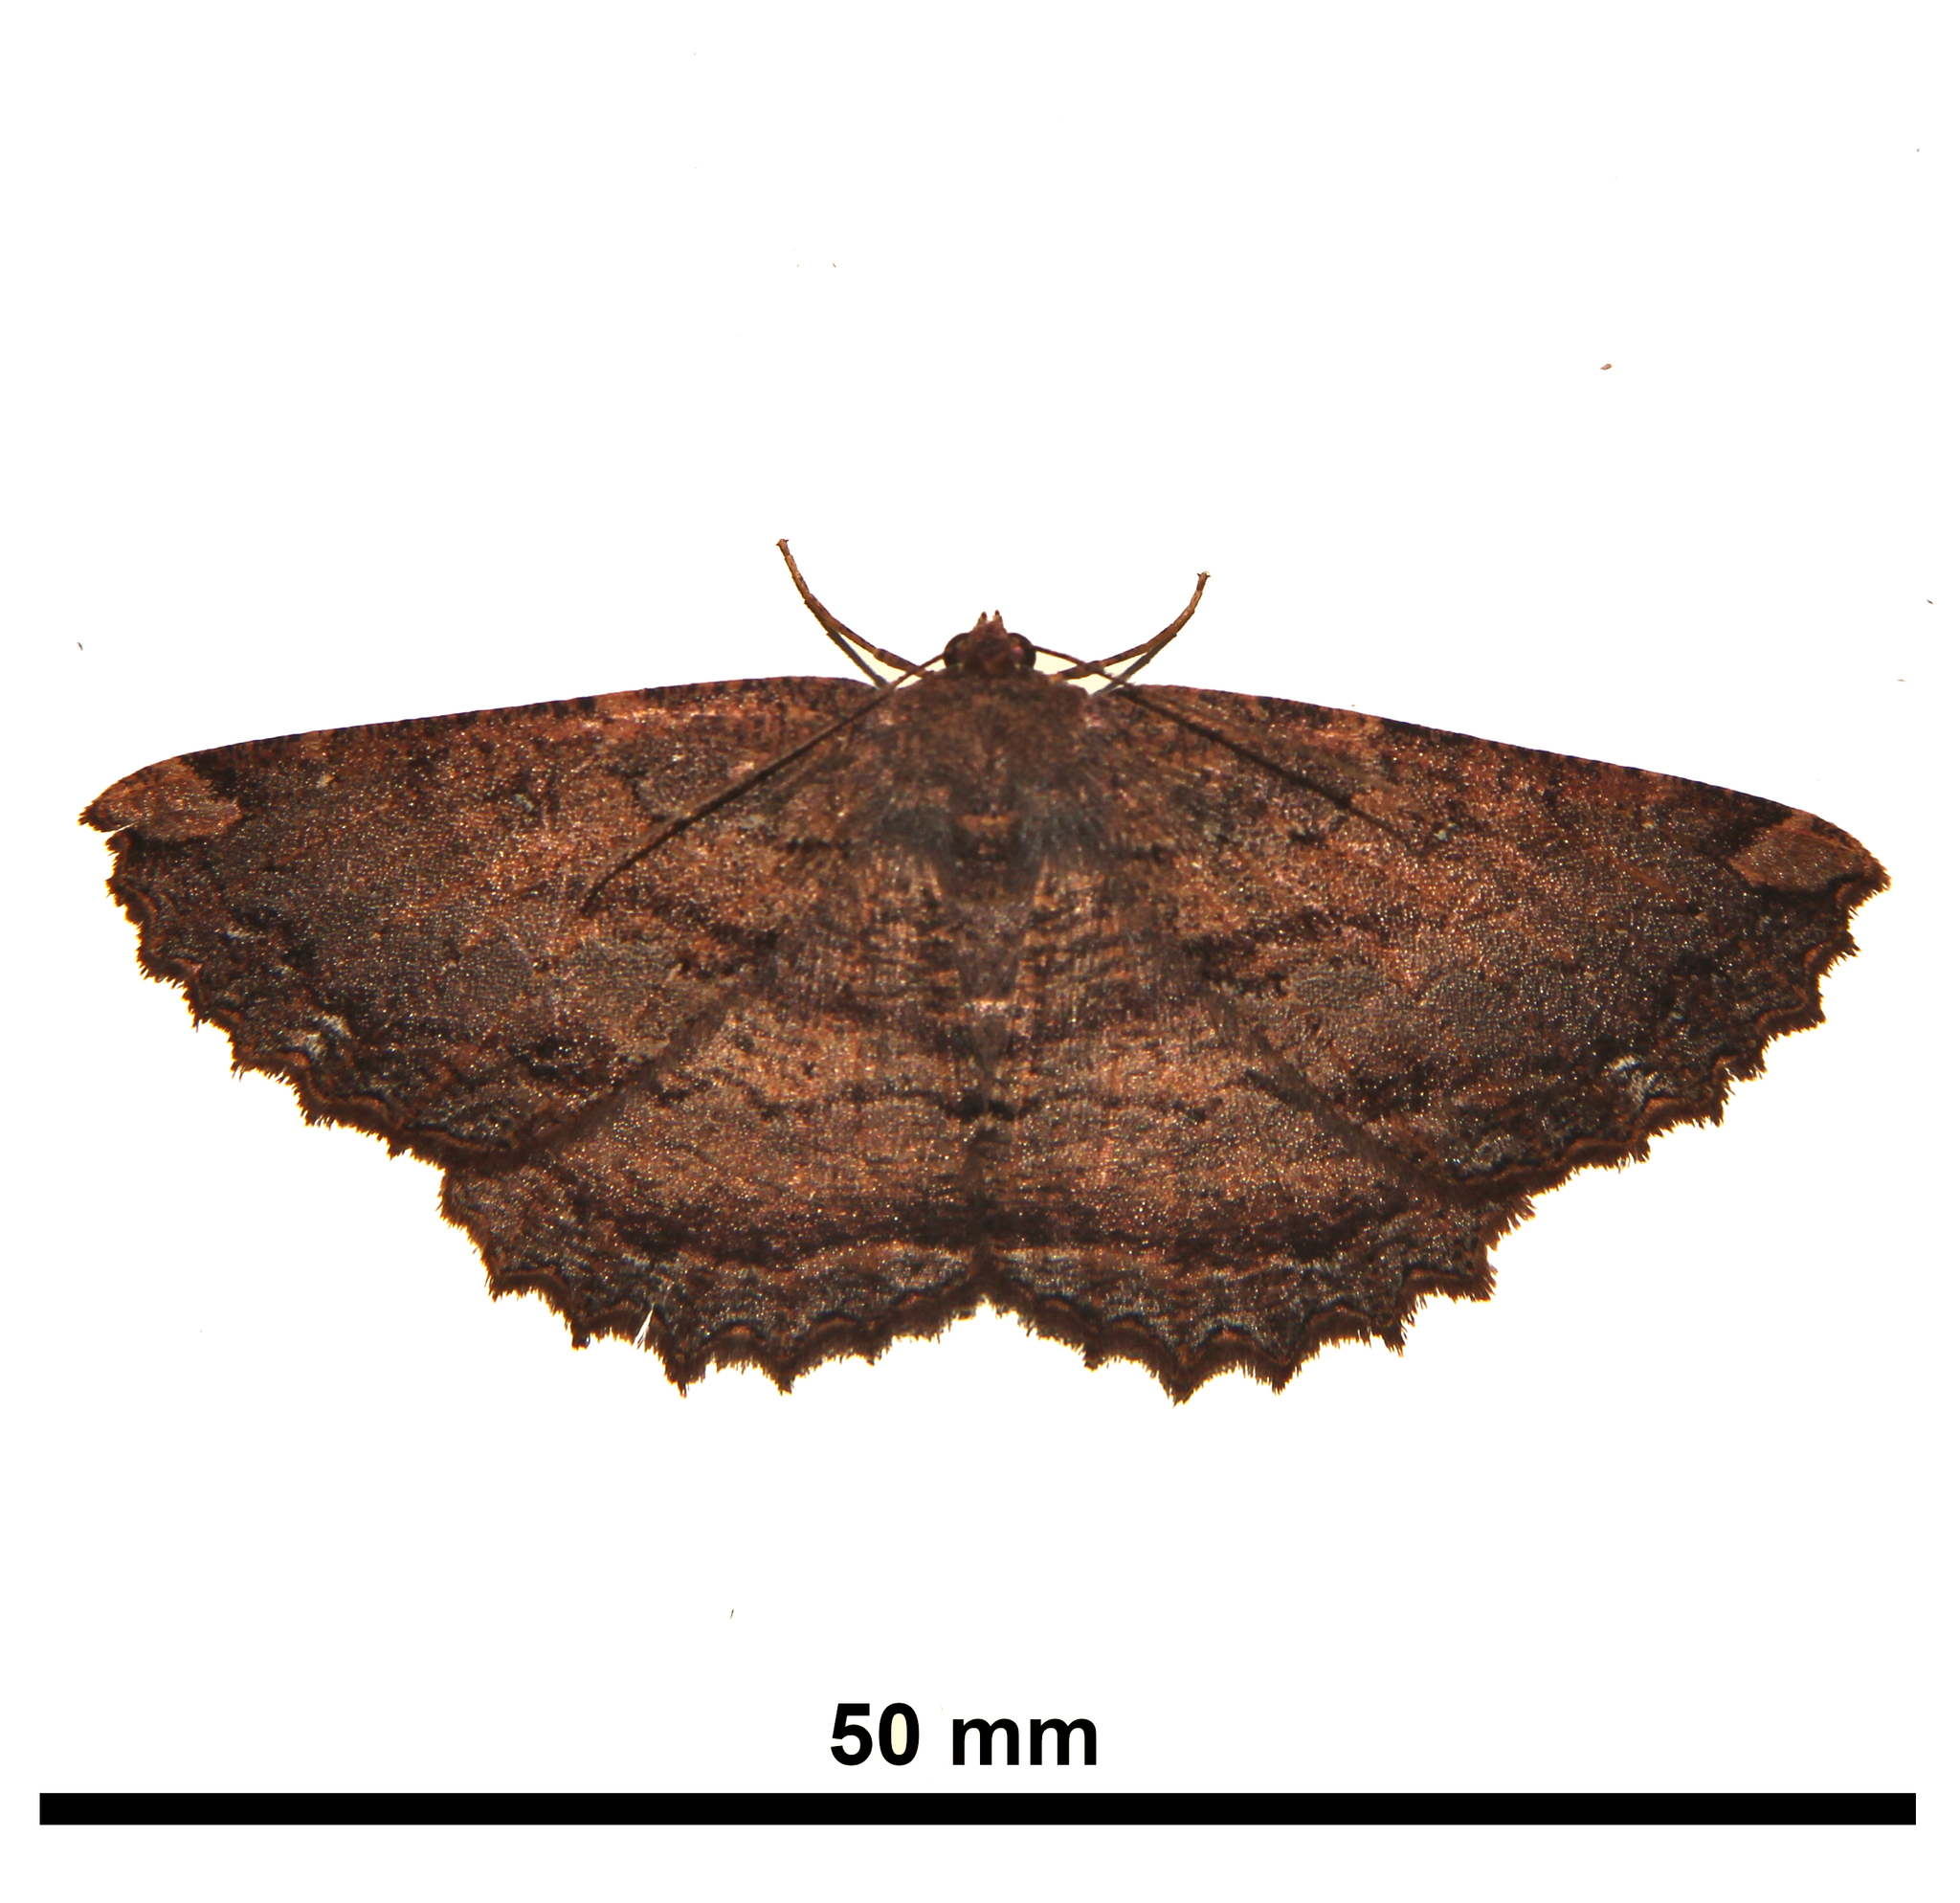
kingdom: Animalia
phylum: Arthropoda
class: Insecta
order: Lepidoptera
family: Geometridae
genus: Gellonia
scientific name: Gellonia dejectaria
